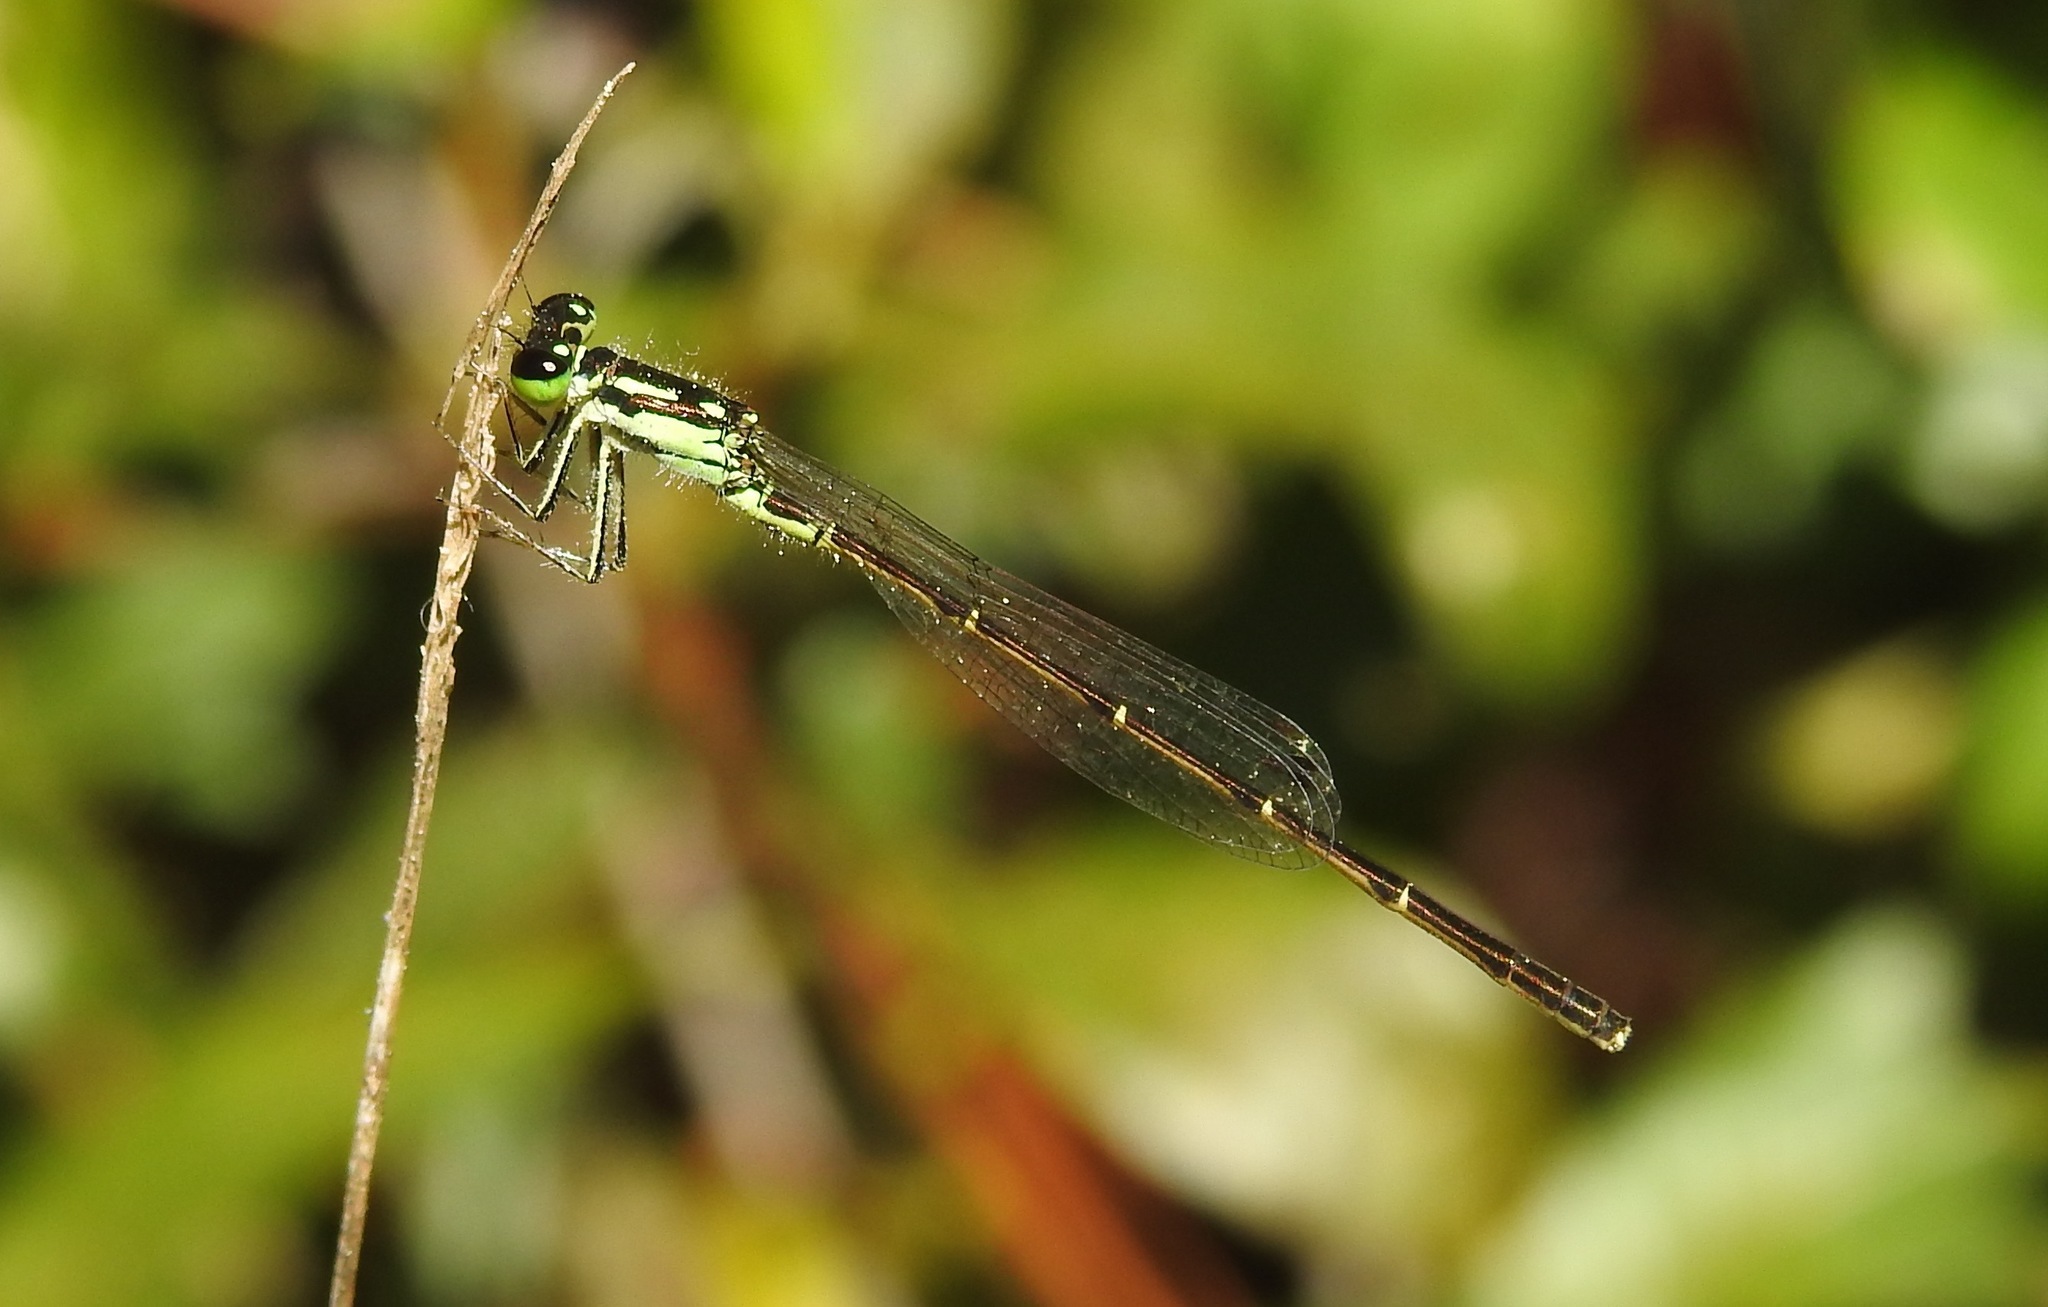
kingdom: Animalia
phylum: Arthropoda
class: Insecta
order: Odonata
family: Coenagrionidae
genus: Ischnura
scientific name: Ischnura posita
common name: Fragile forktail
